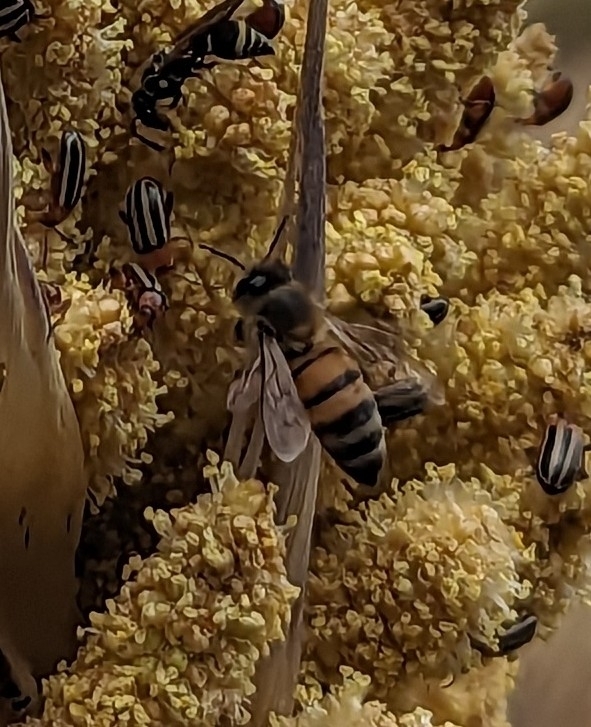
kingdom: Animalia
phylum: Arthropoda
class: Insecta
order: Hymenoptera
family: Apidae
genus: Apis
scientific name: Apis mellifera
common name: Honey bee
